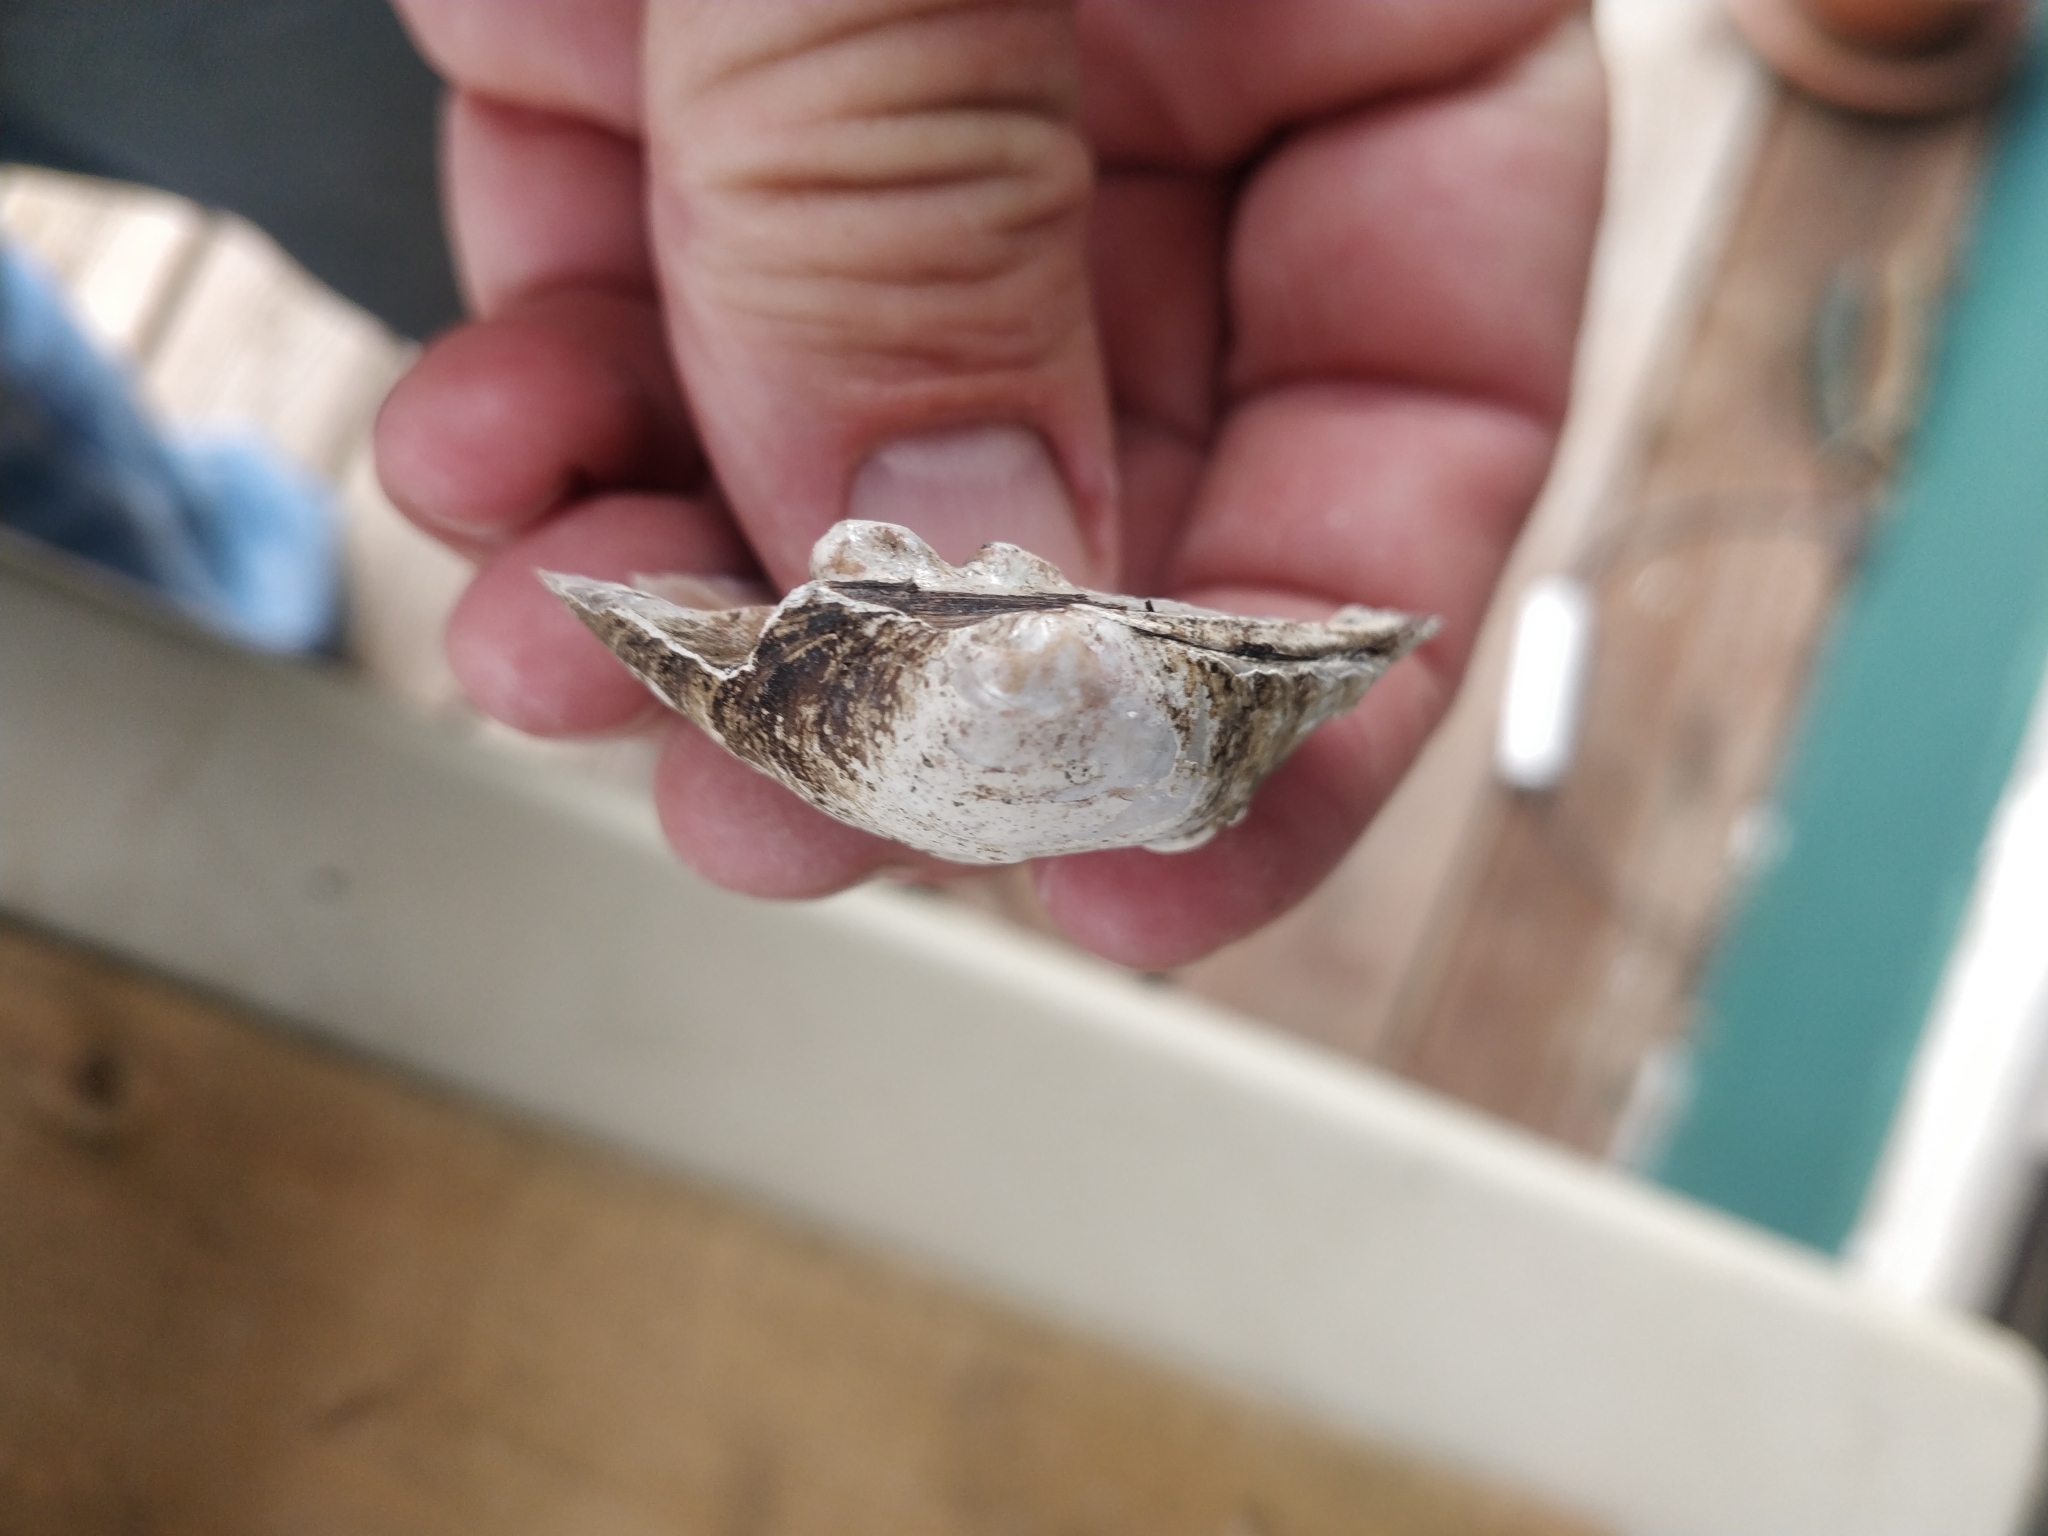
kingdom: Animalia
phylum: Mollusca
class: Bivalvia
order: Unionida
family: Unionidae
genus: Cyclonaias
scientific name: Cyclonaias pustulosa
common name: Pimpleback
